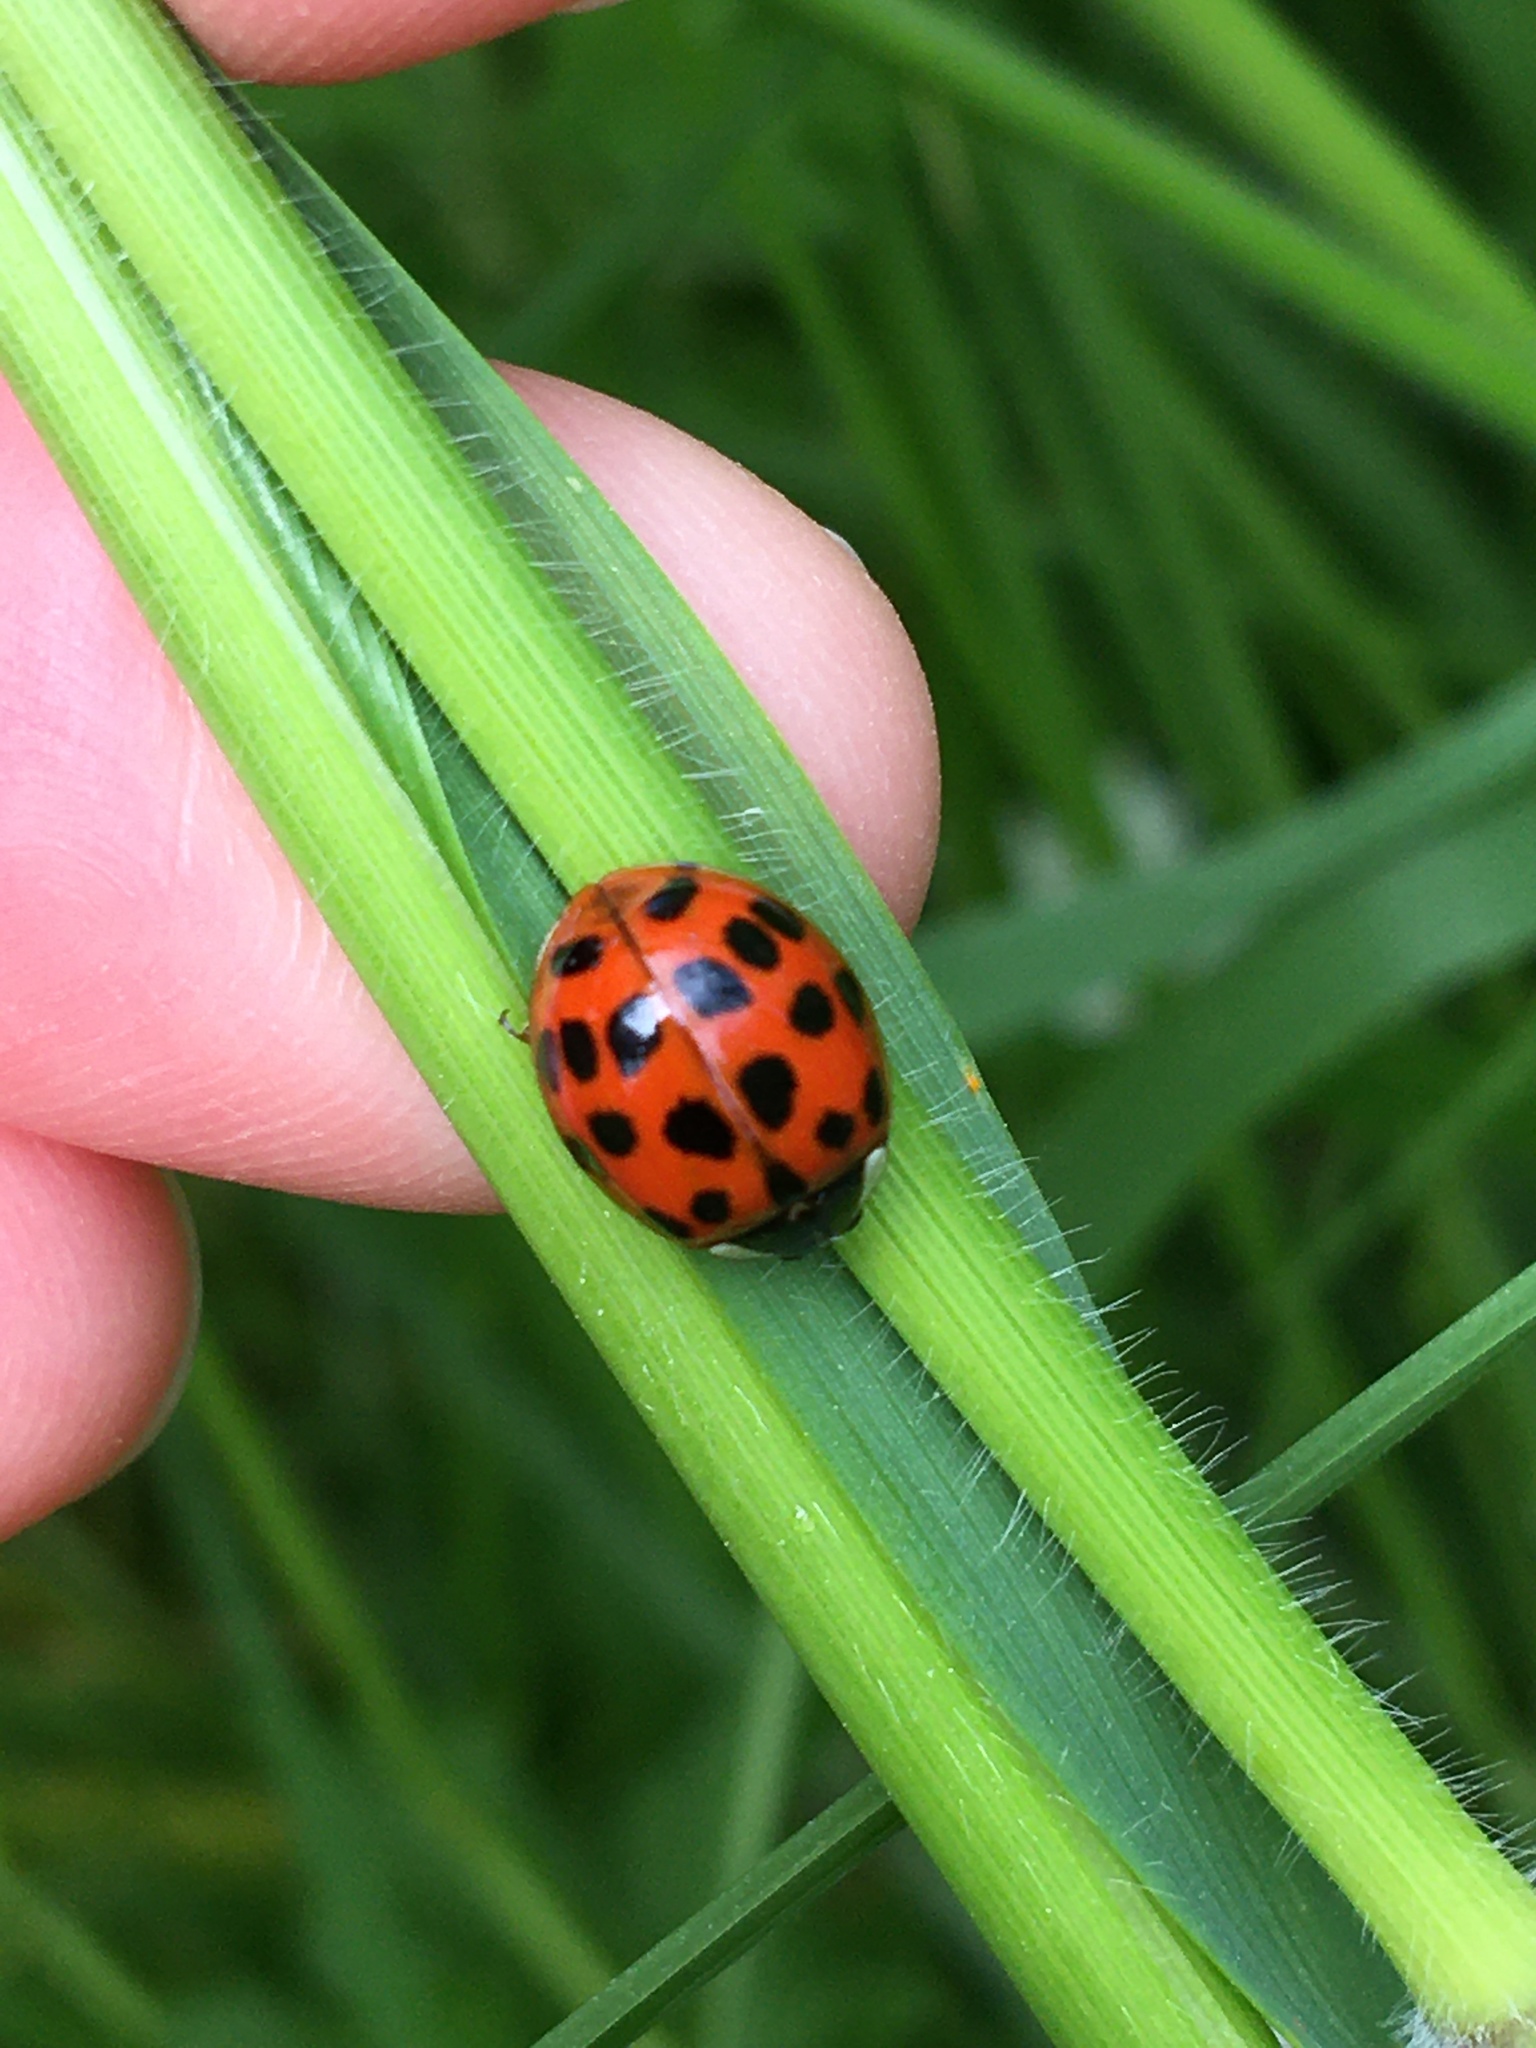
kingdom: Animalia
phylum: Arthropoda
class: Insecta
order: Coleoptera
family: Coccinellidae
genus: Harmonia
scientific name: Harmonia axyridis
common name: Harlequin ladybird
